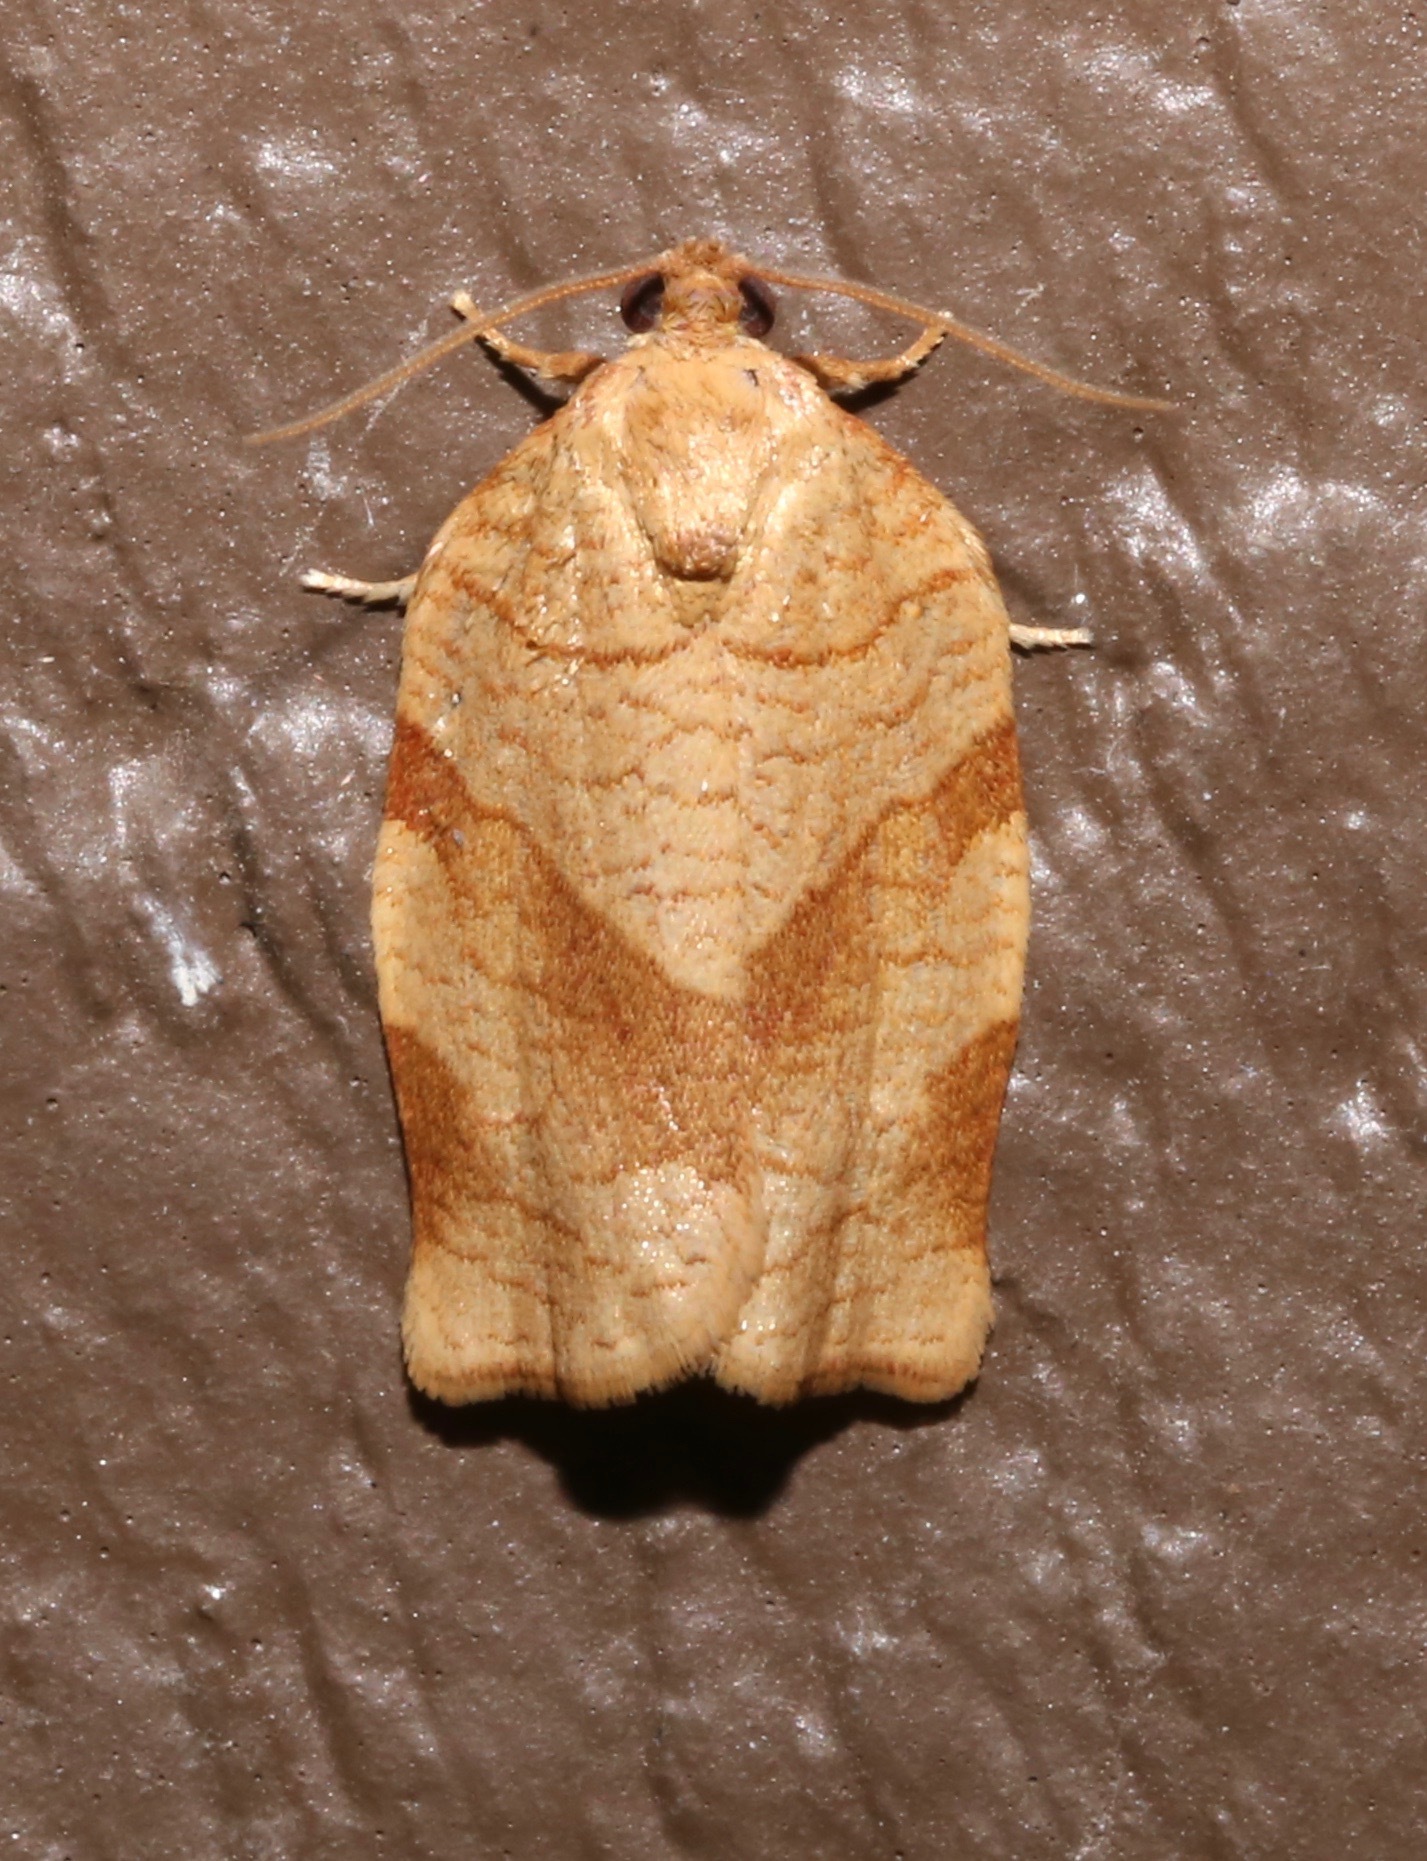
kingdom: Animalia
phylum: Arthropoda
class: Insecta
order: Lepidoptera
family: Tortricidae
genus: Choristoneura
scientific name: Choristoneura rosaceana
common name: Oblique-banded leafroller moth
